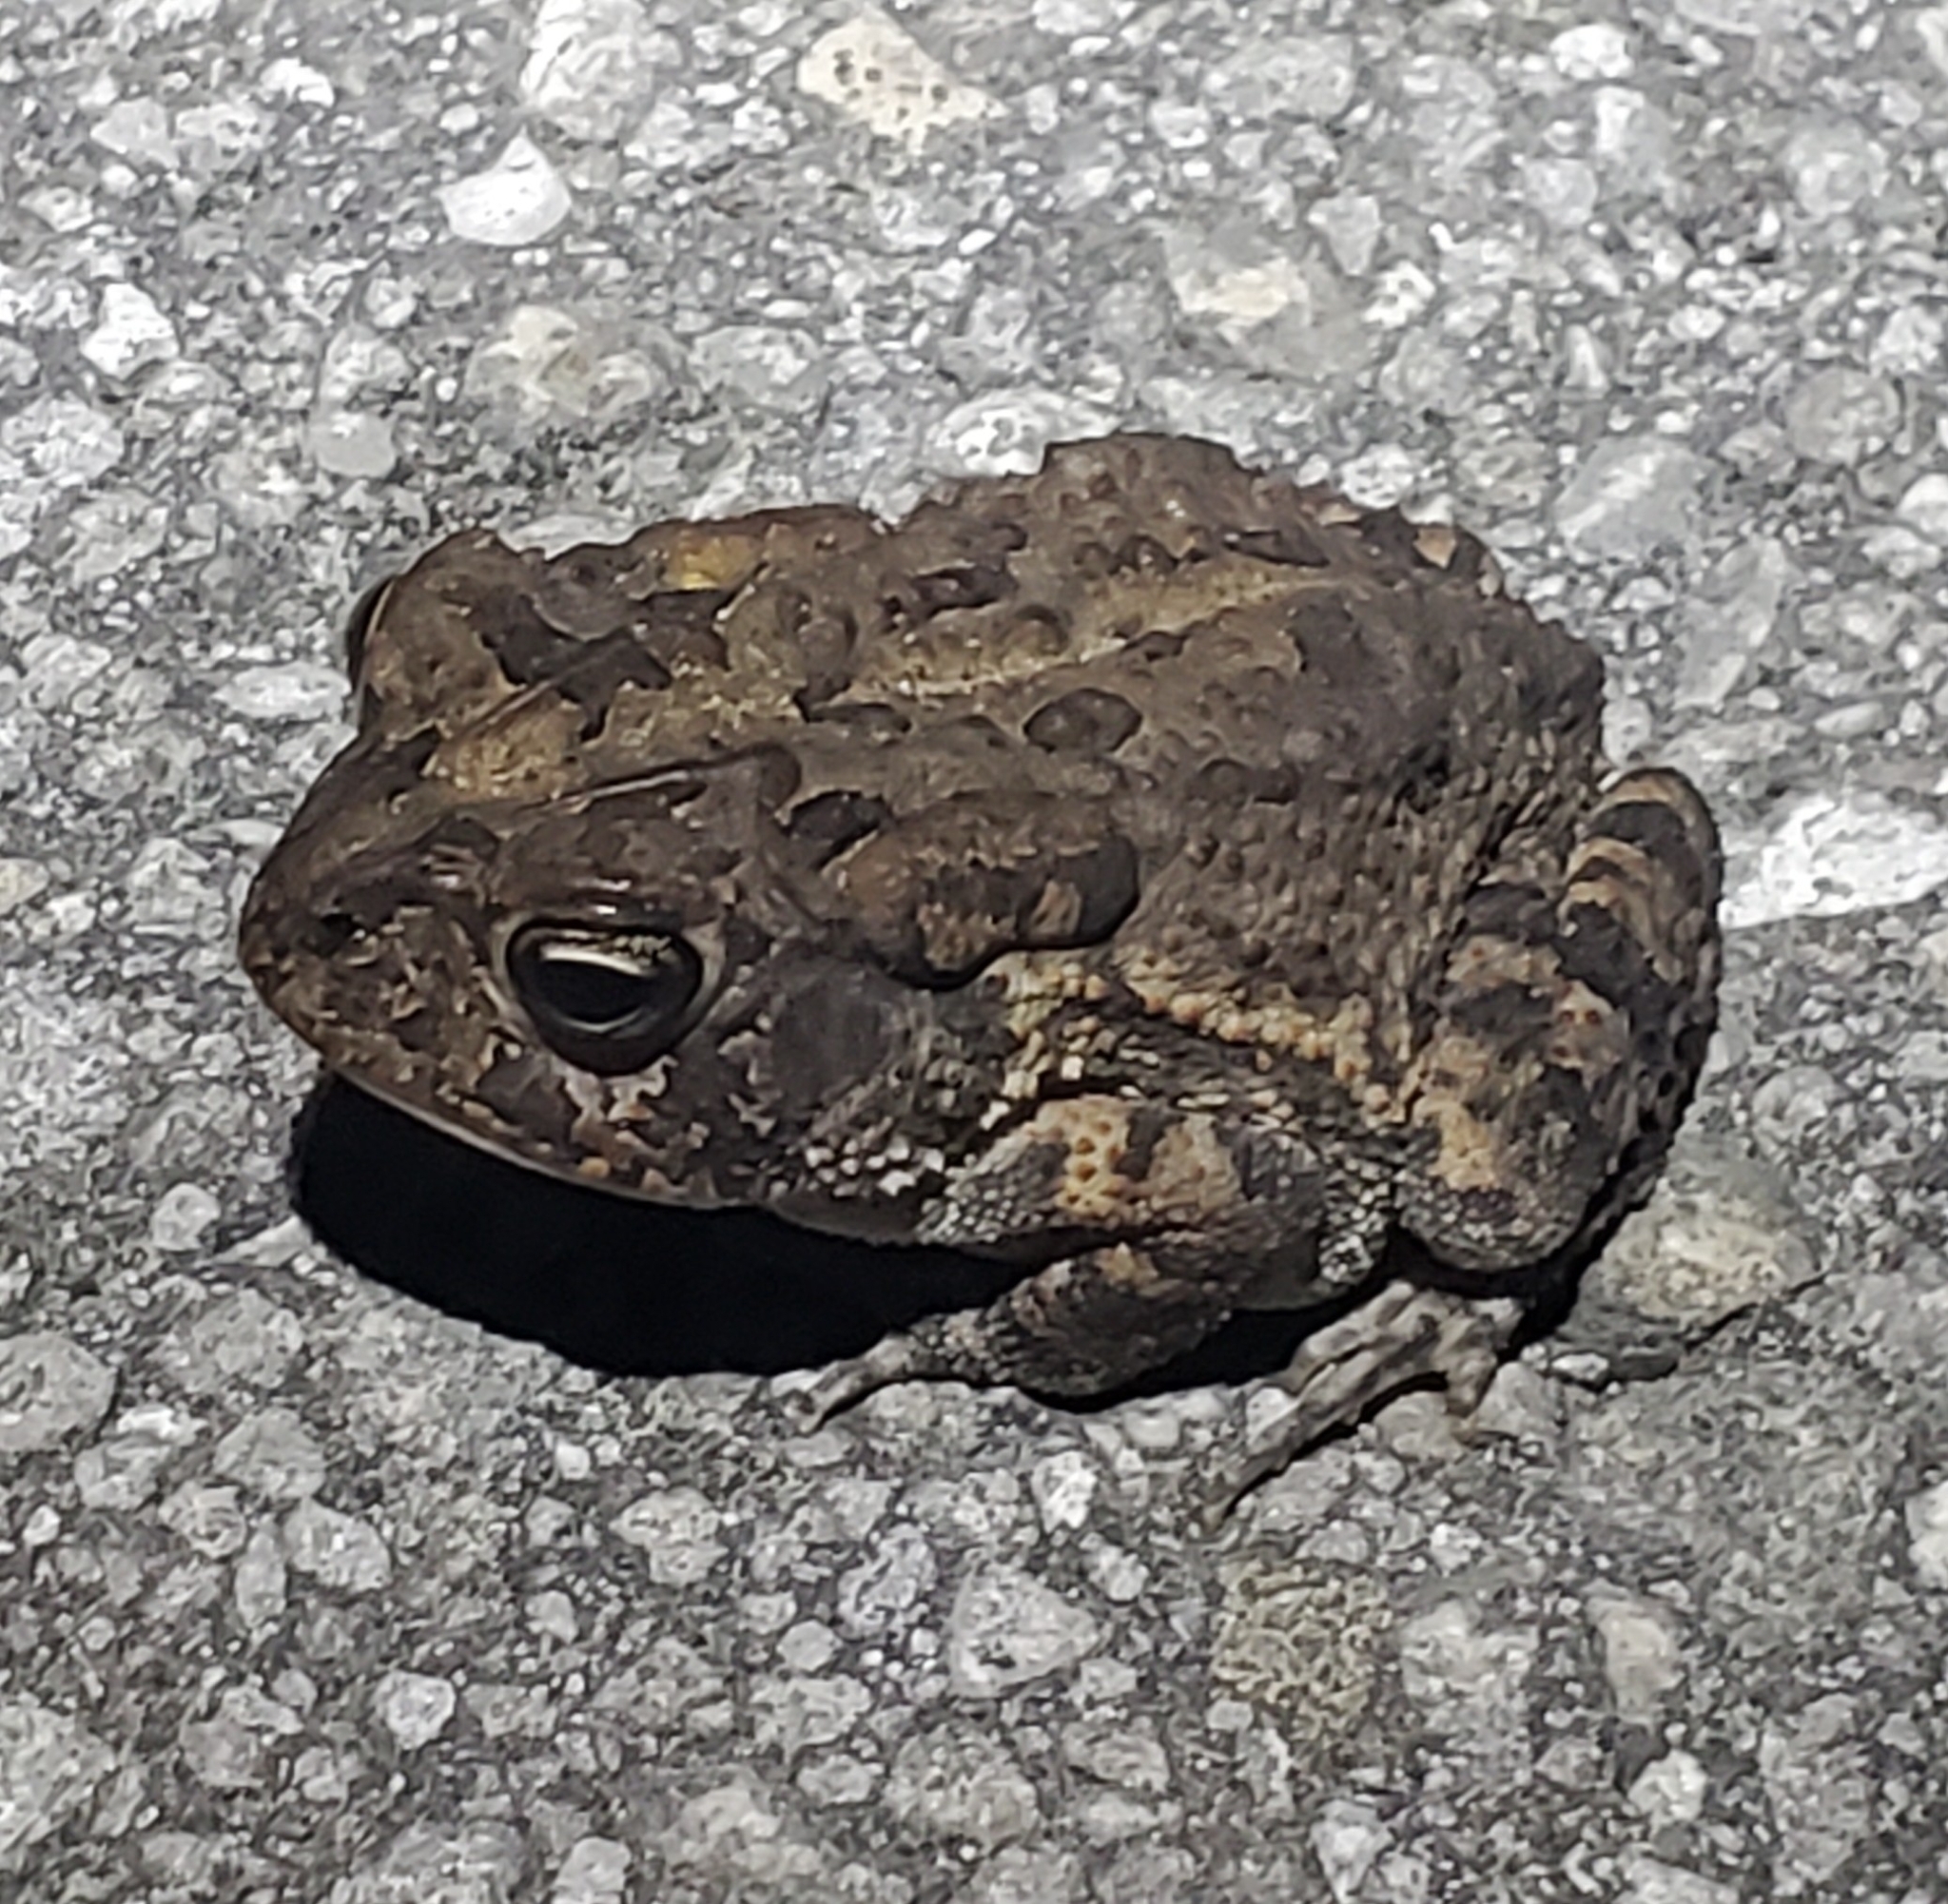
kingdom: Animalia
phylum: Chordata
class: Amphibia
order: Anura
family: Bufonidae
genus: Anaxyrus
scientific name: Anaxyrus terrestris
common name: Southern toad
